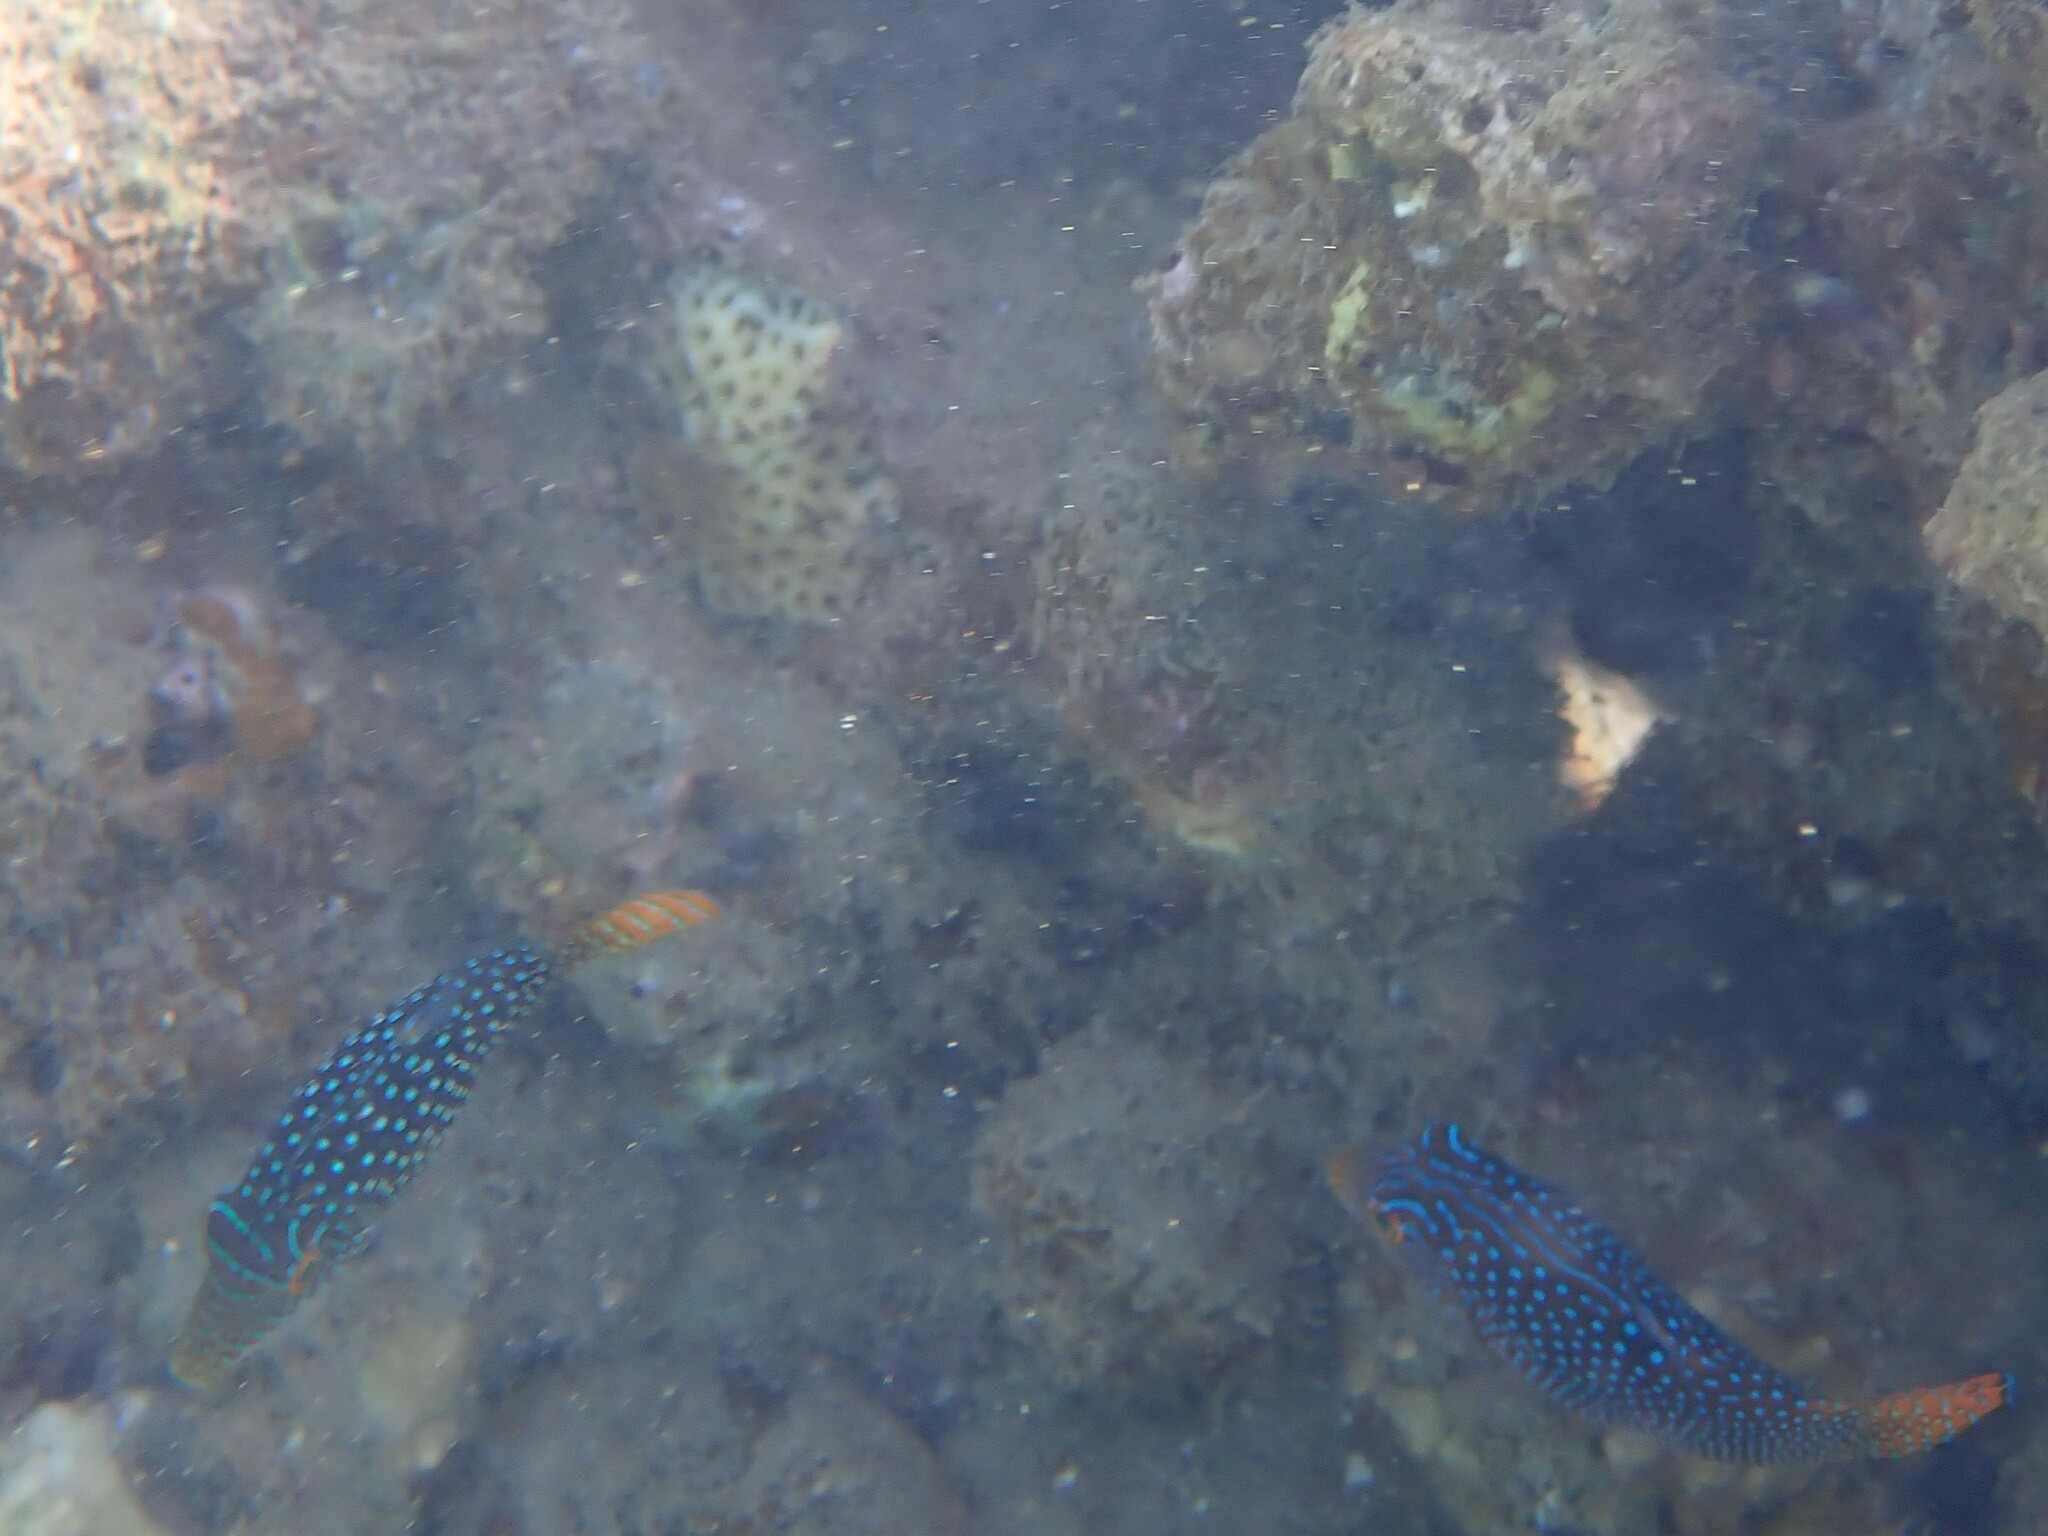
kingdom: Animalia
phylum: Chordata
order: Tetraodontiformes
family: Tetraodontidae
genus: Canthigaster
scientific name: Canthigaster solandri
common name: False-eye toby
